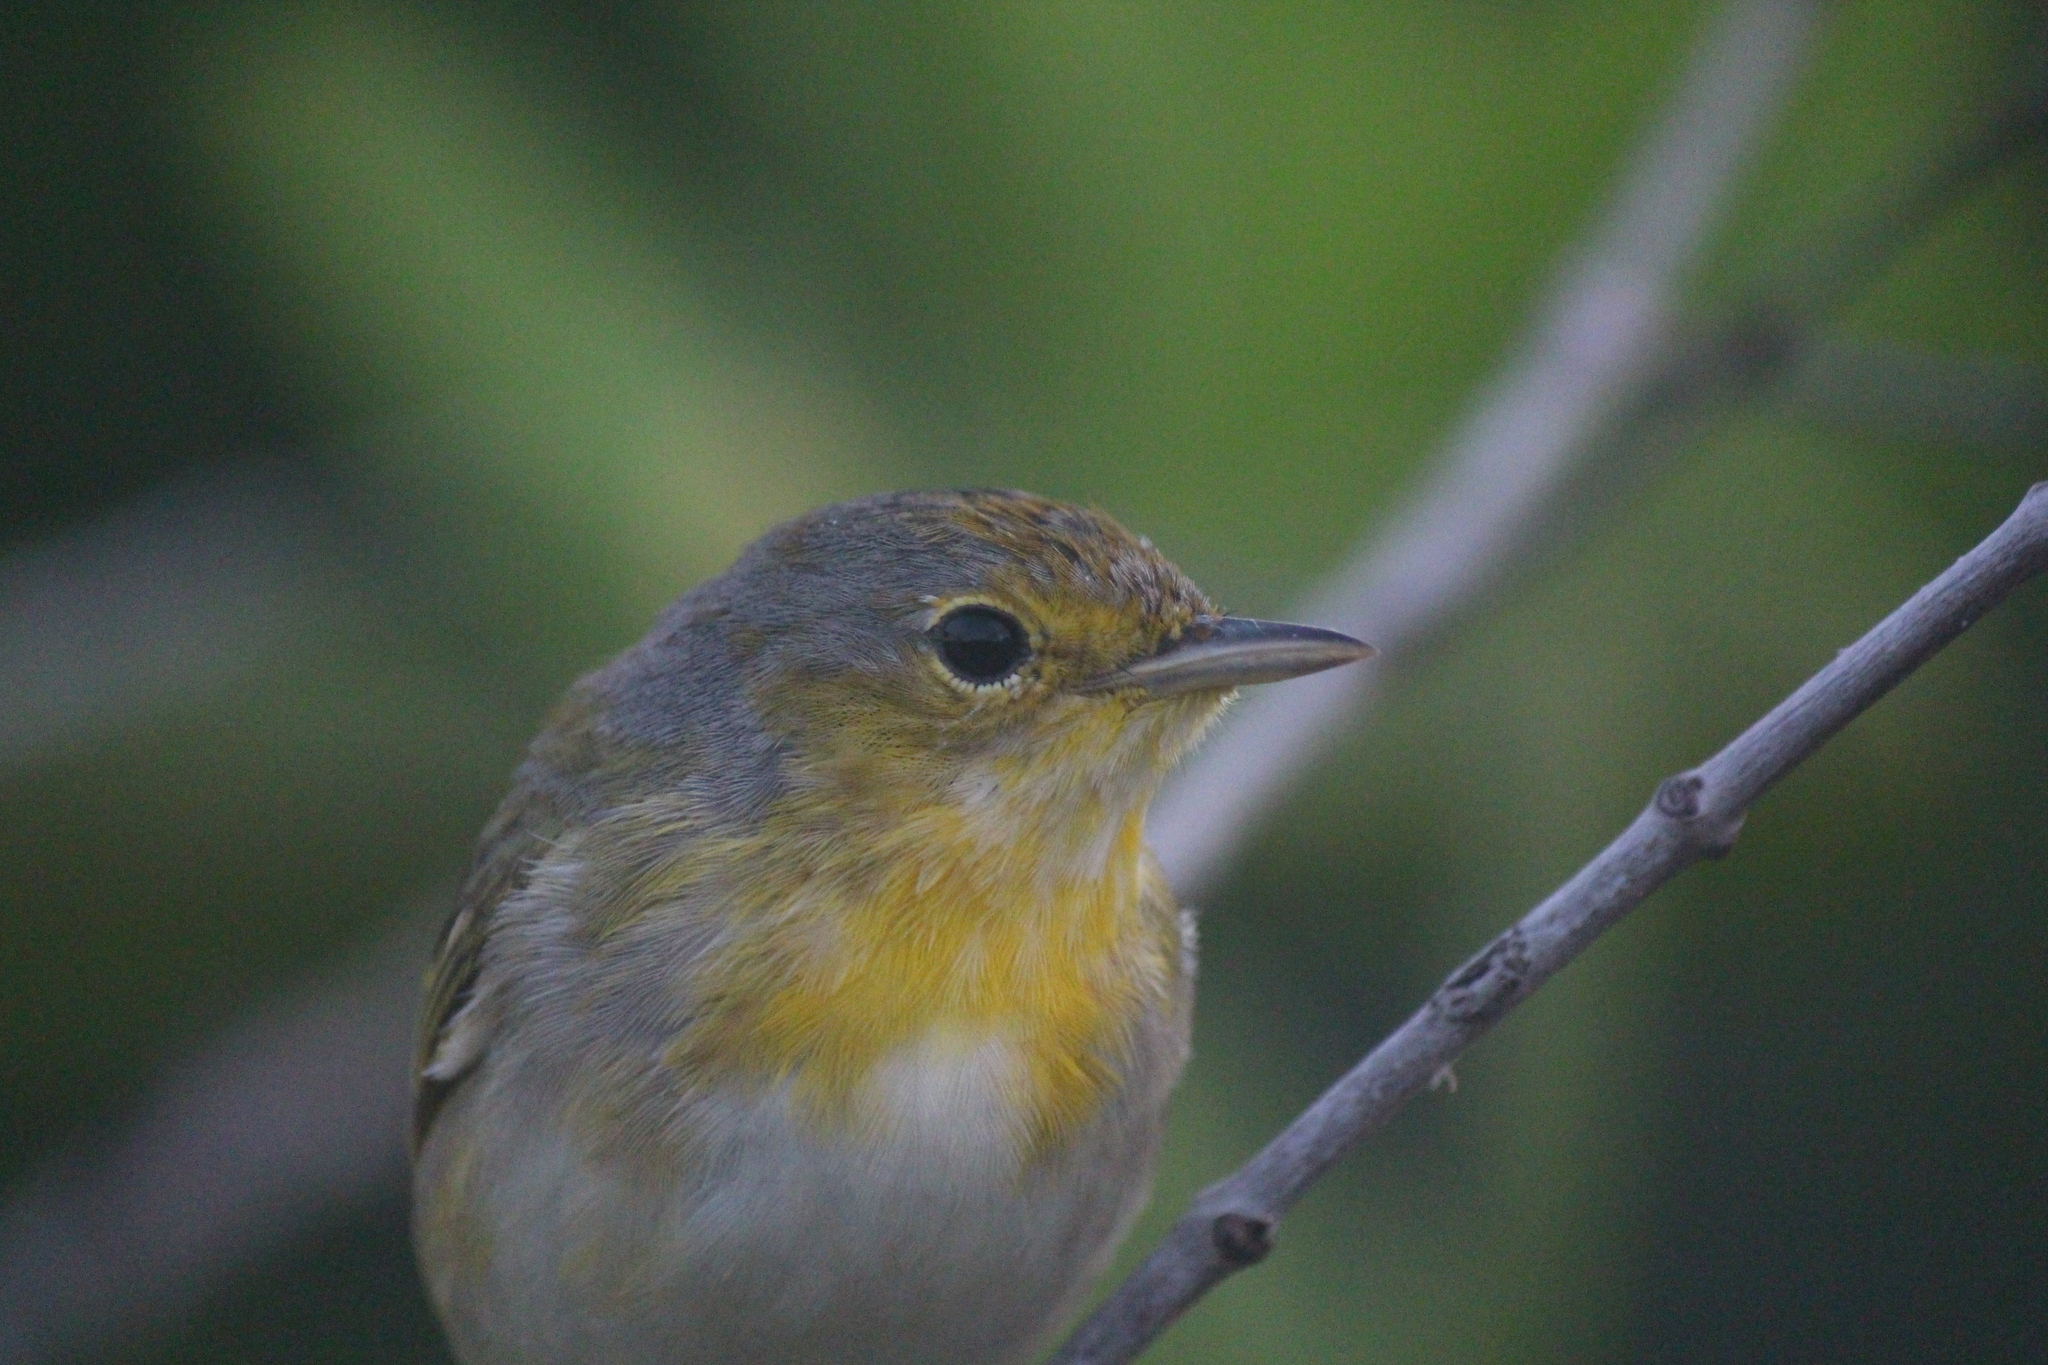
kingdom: Animalia
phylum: Chordata
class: Aves
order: Passeriformes
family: Parulidae
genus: Setophaga
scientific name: Setophaga petechia
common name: Yellow warbler
